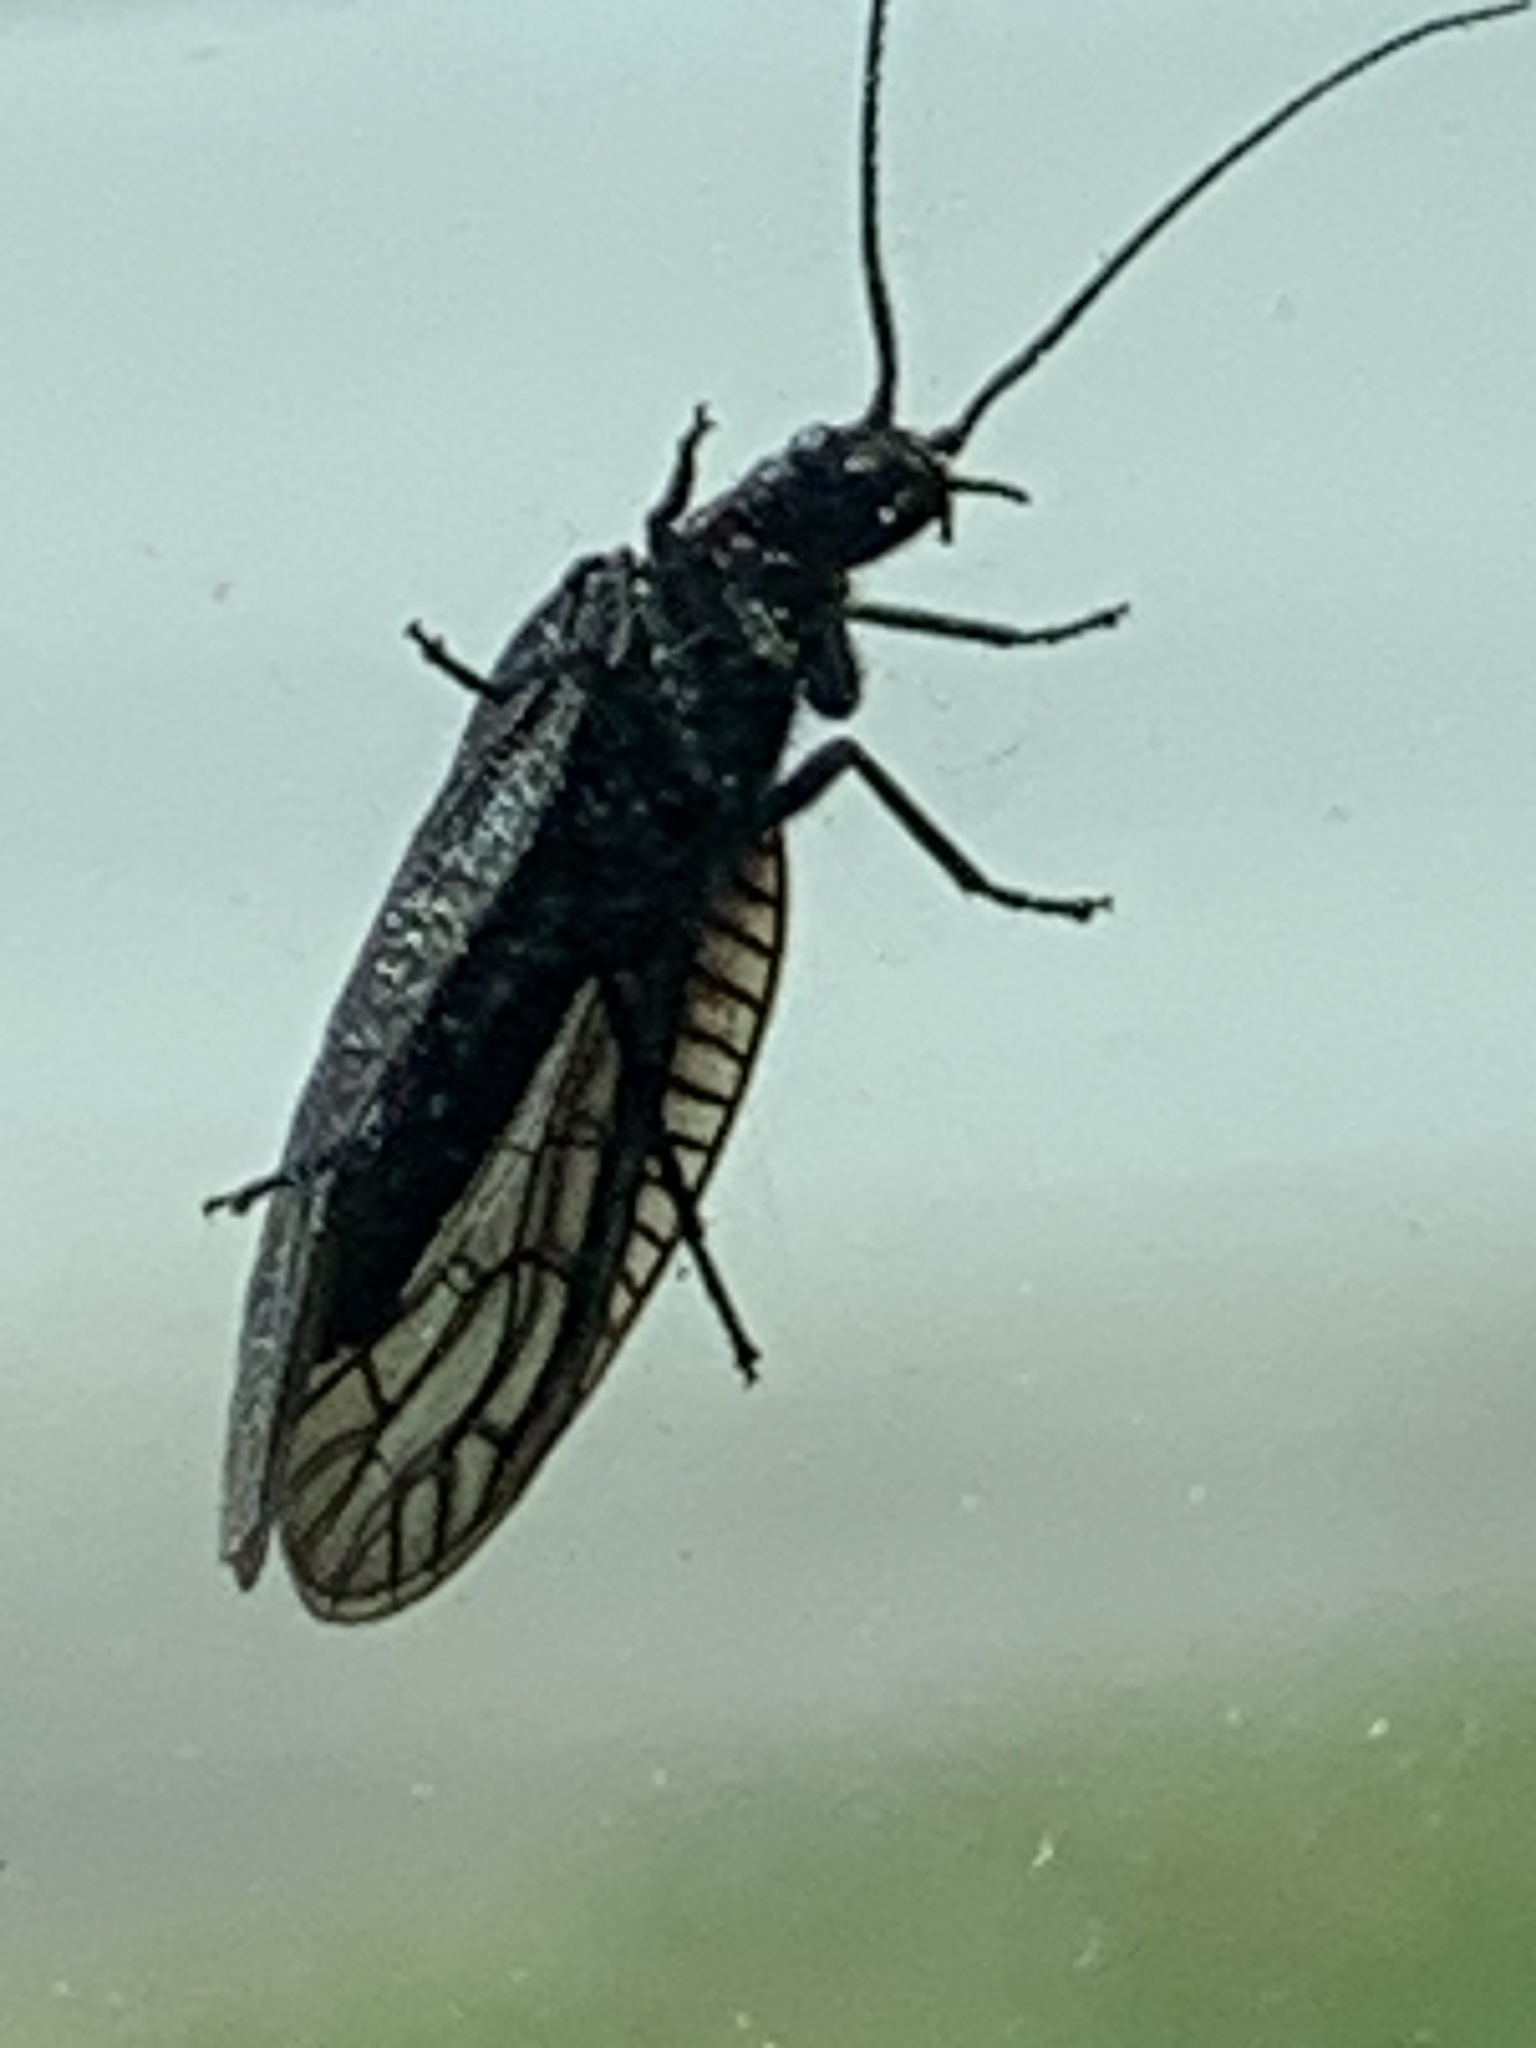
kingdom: Animalia
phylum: Arthropoda
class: Insecta
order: Megaloptera
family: Sialidae
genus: Sialis
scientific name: Sialis
